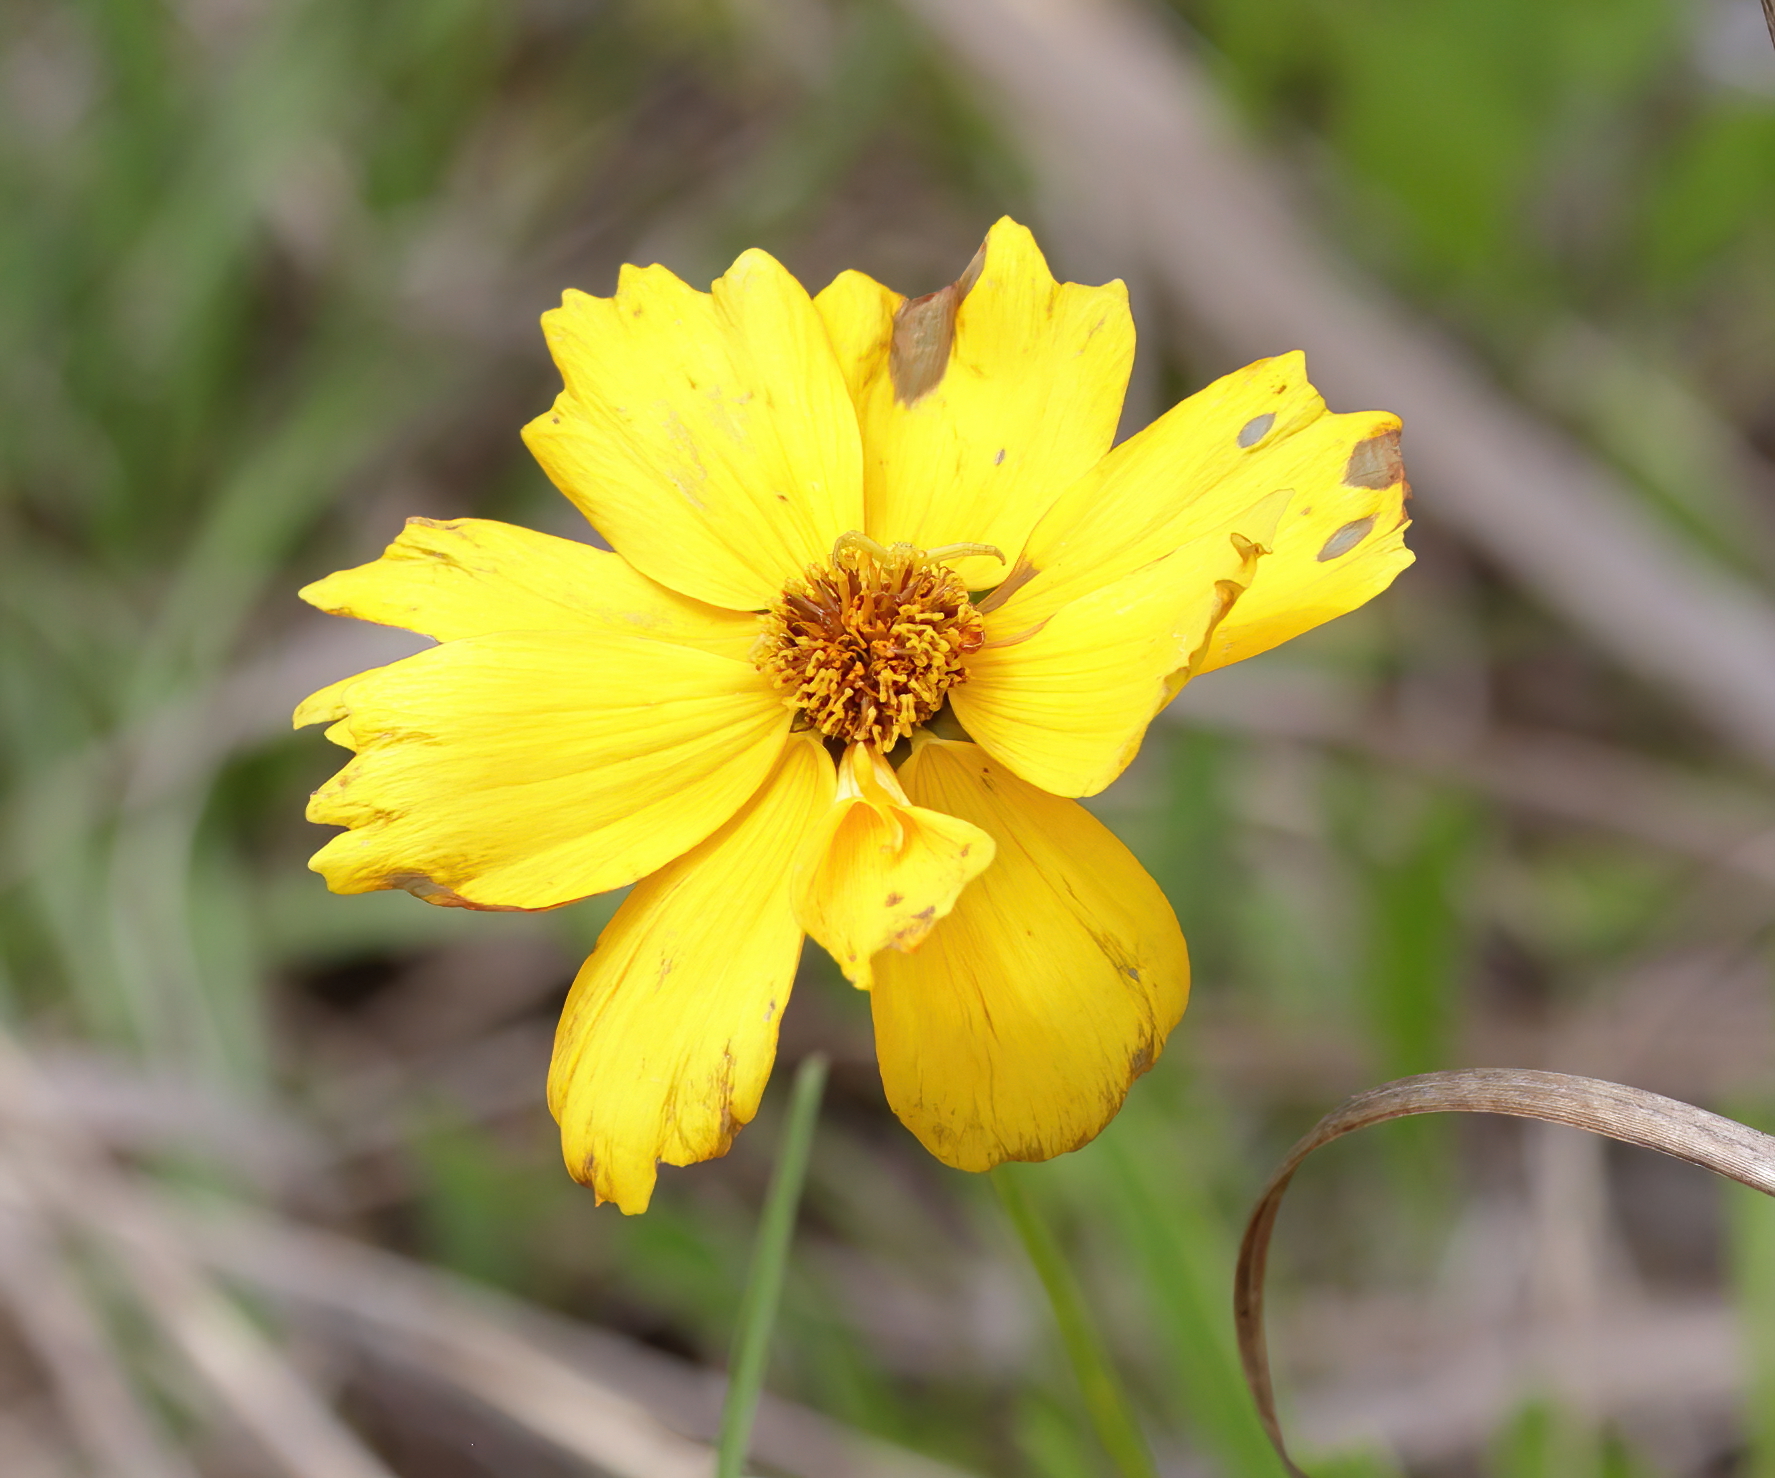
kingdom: Plantae
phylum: Tracheophyta
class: Magnoliopsida
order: Asterales
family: Asteraceae
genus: Coreopsis
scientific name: Coreopsis lanceolata
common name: Garden coreopsis
